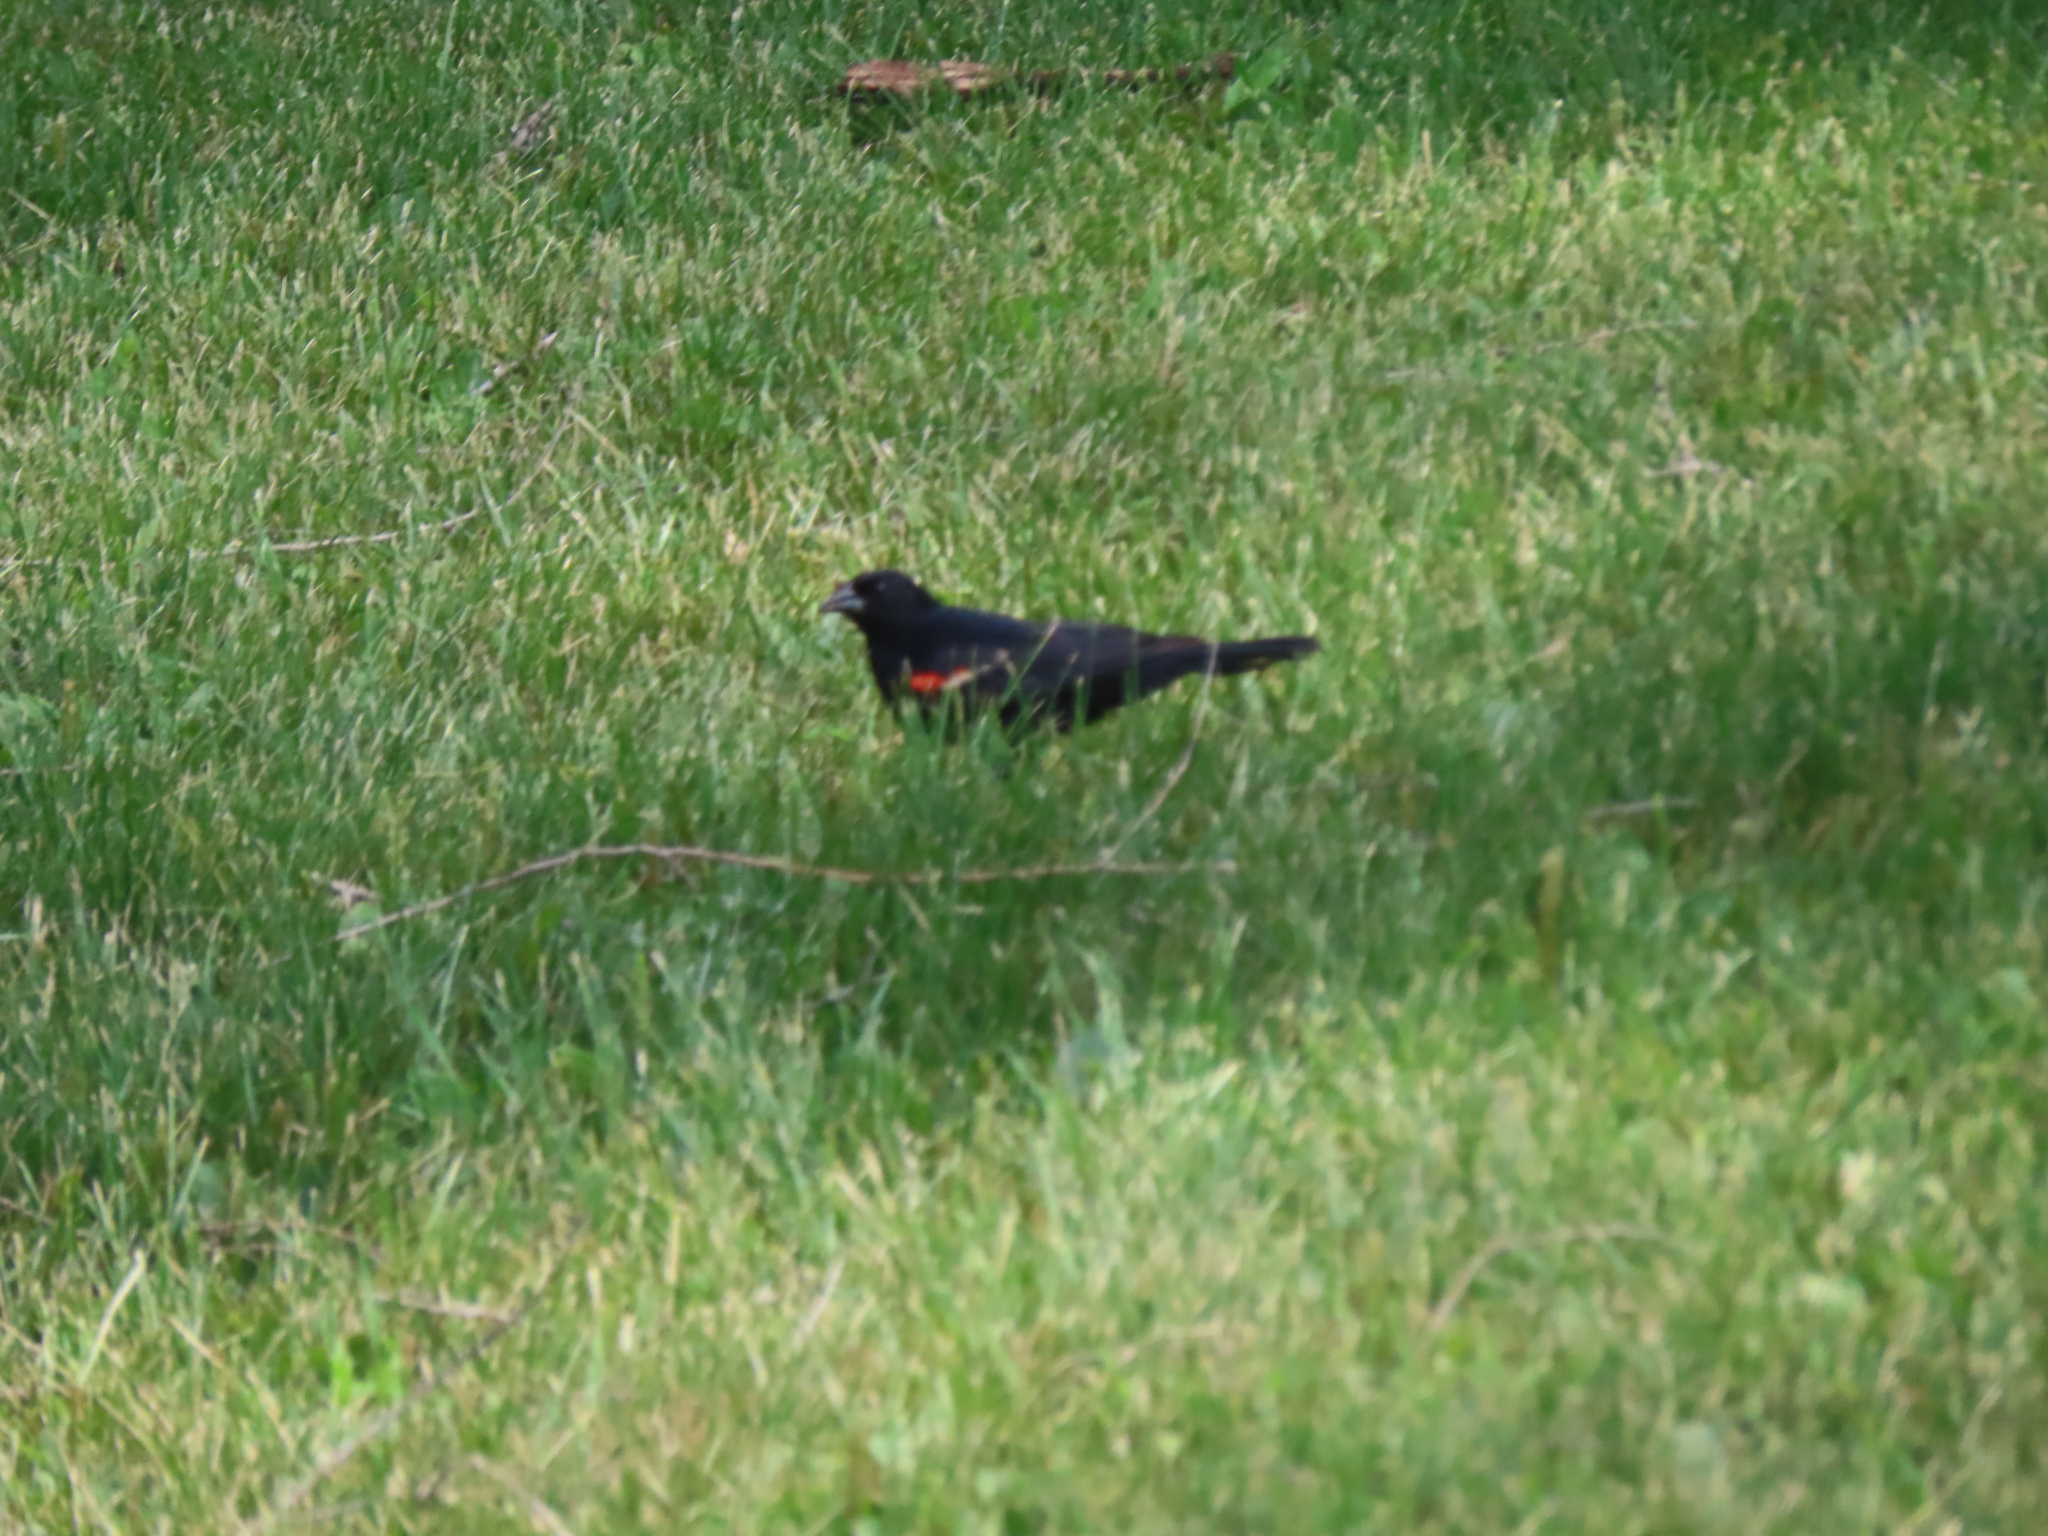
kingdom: Animalia
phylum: Chordata
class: Aves
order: Passeriformes
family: Icteridae
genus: Agelaius
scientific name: Agelaius phoeniceus
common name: Red-winged blackbird
